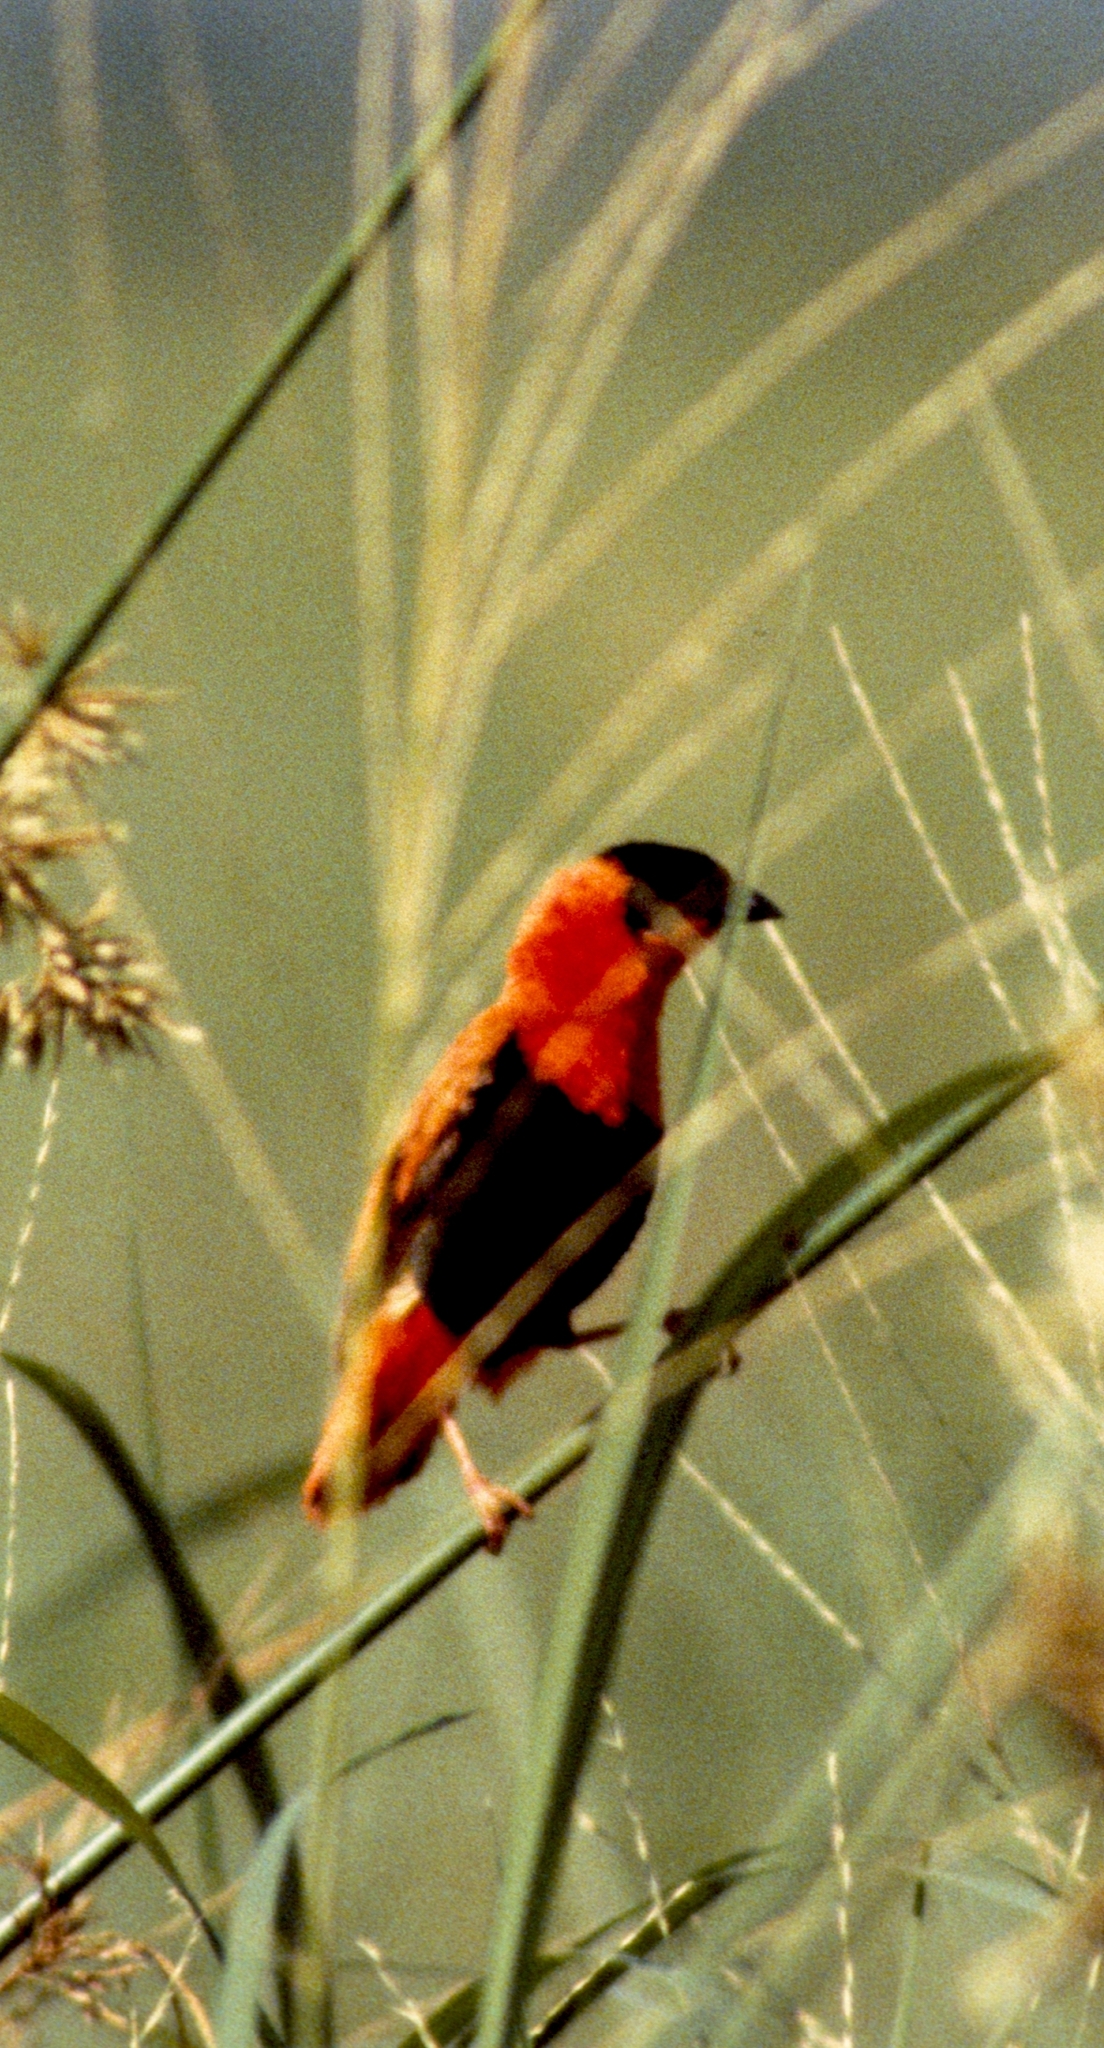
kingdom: Animalia
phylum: Chordata
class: Aves
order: Passeriformes
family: Ploceidae
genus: Euplectes
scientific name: Euplectes franciscanus
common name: Northern red bishop
